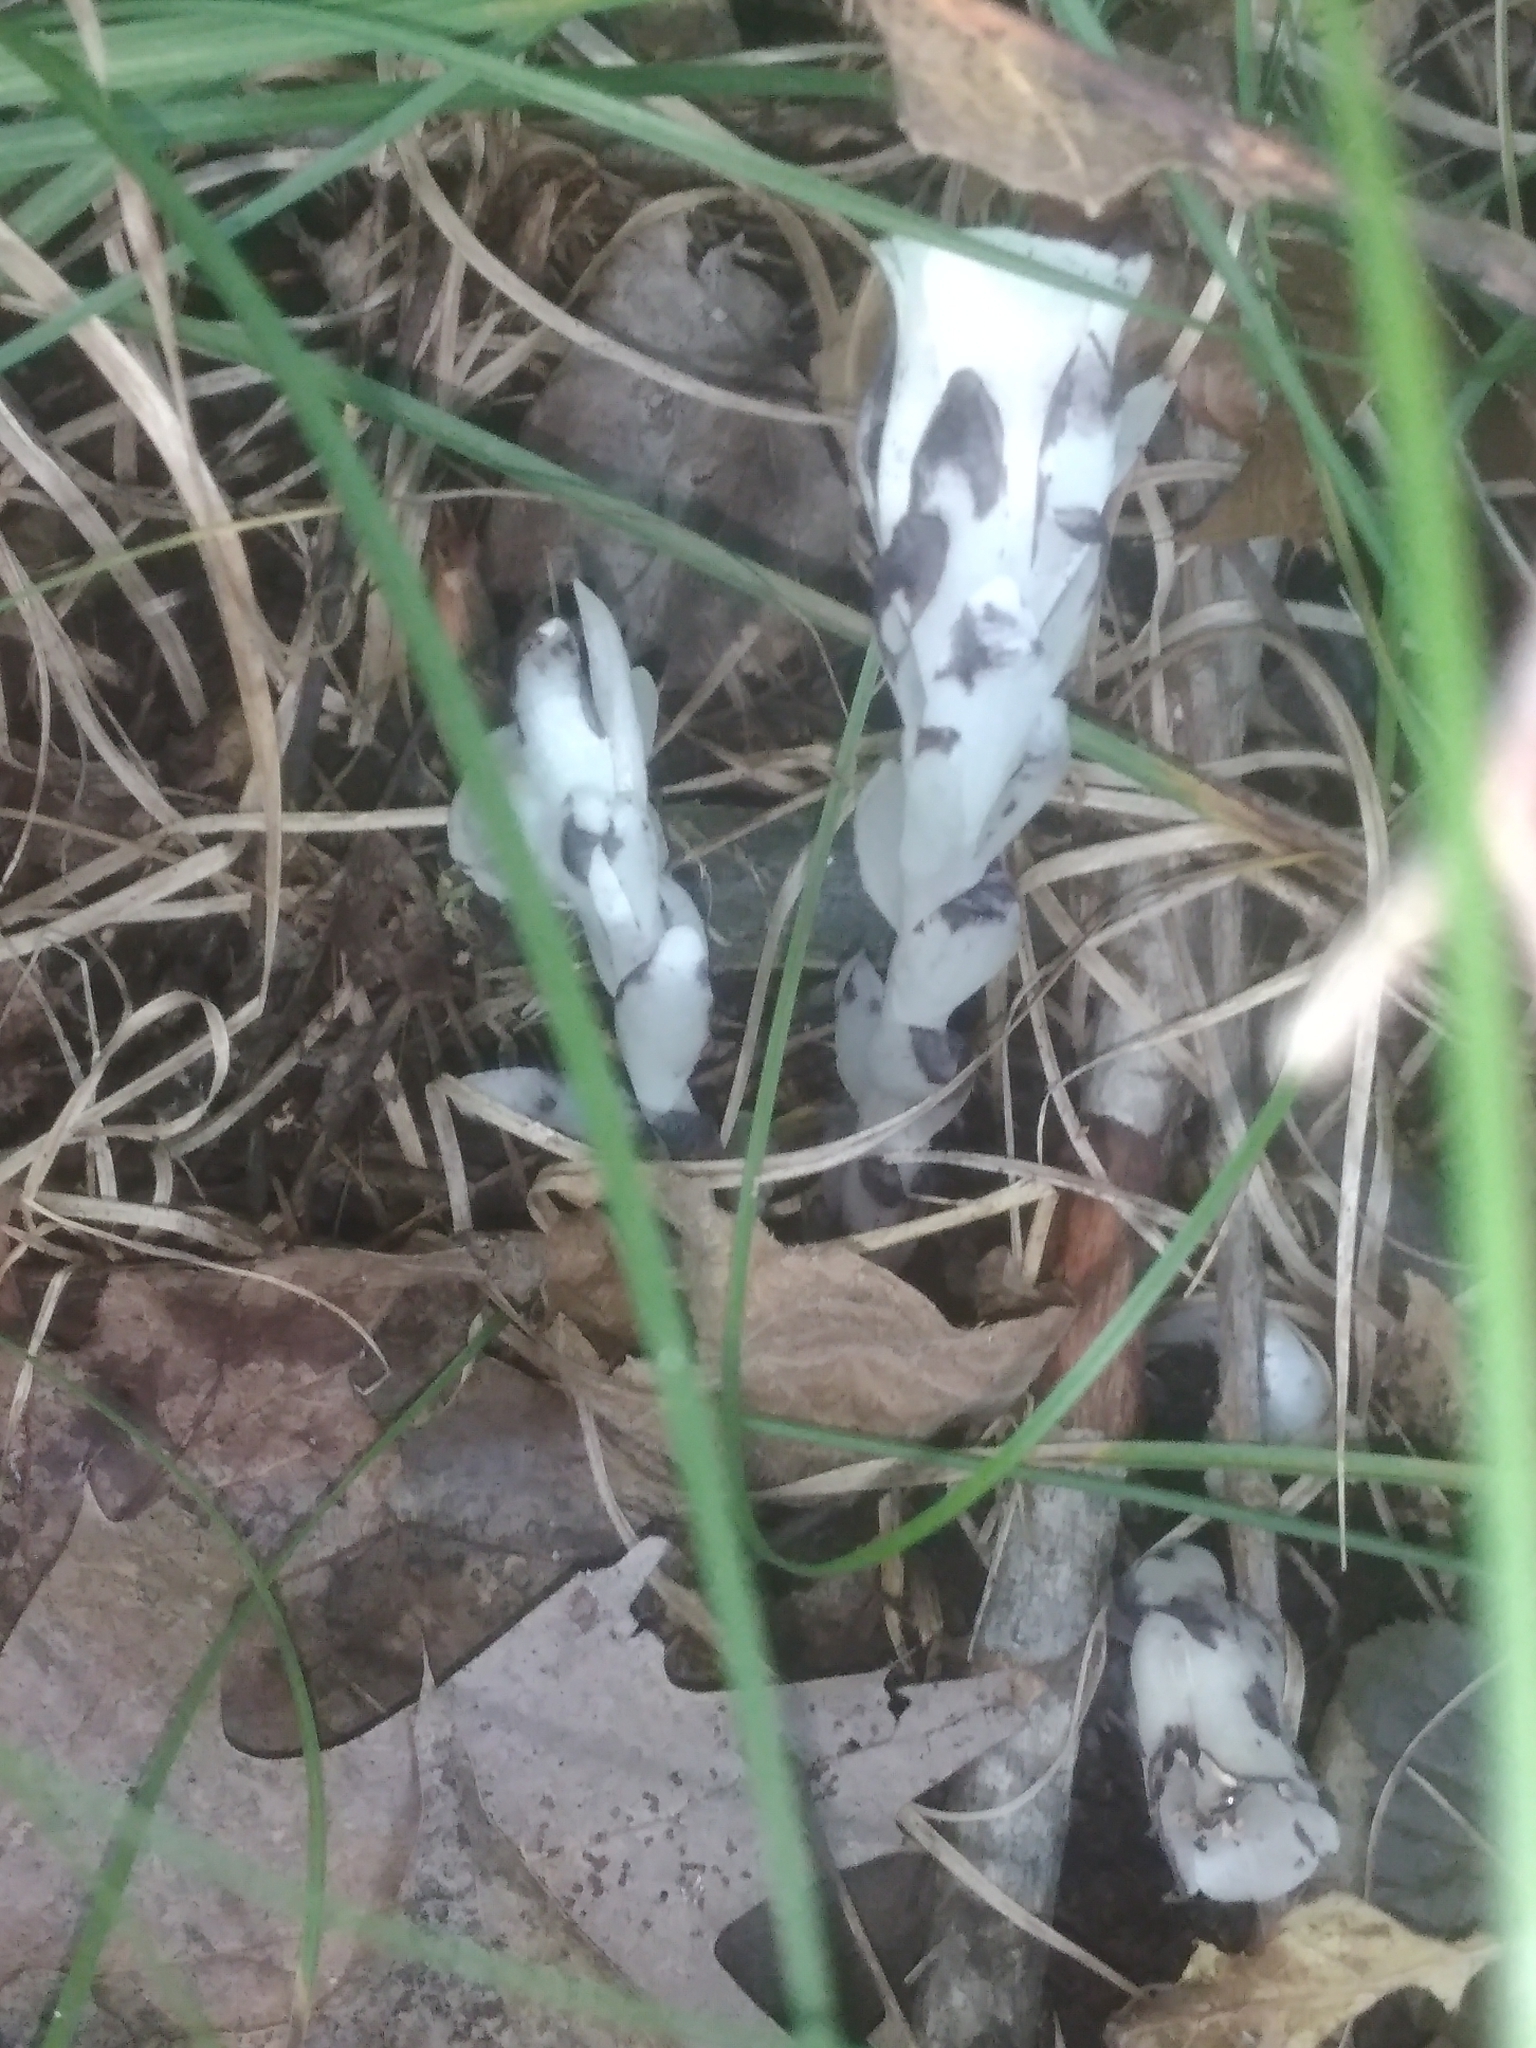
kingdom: Plantae
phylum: Tracheophyta
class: Magnoliopsida
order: Ericales
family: Ericaceae
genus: Monotropa
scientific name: Monotropa uniflora
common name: Convulsion root
